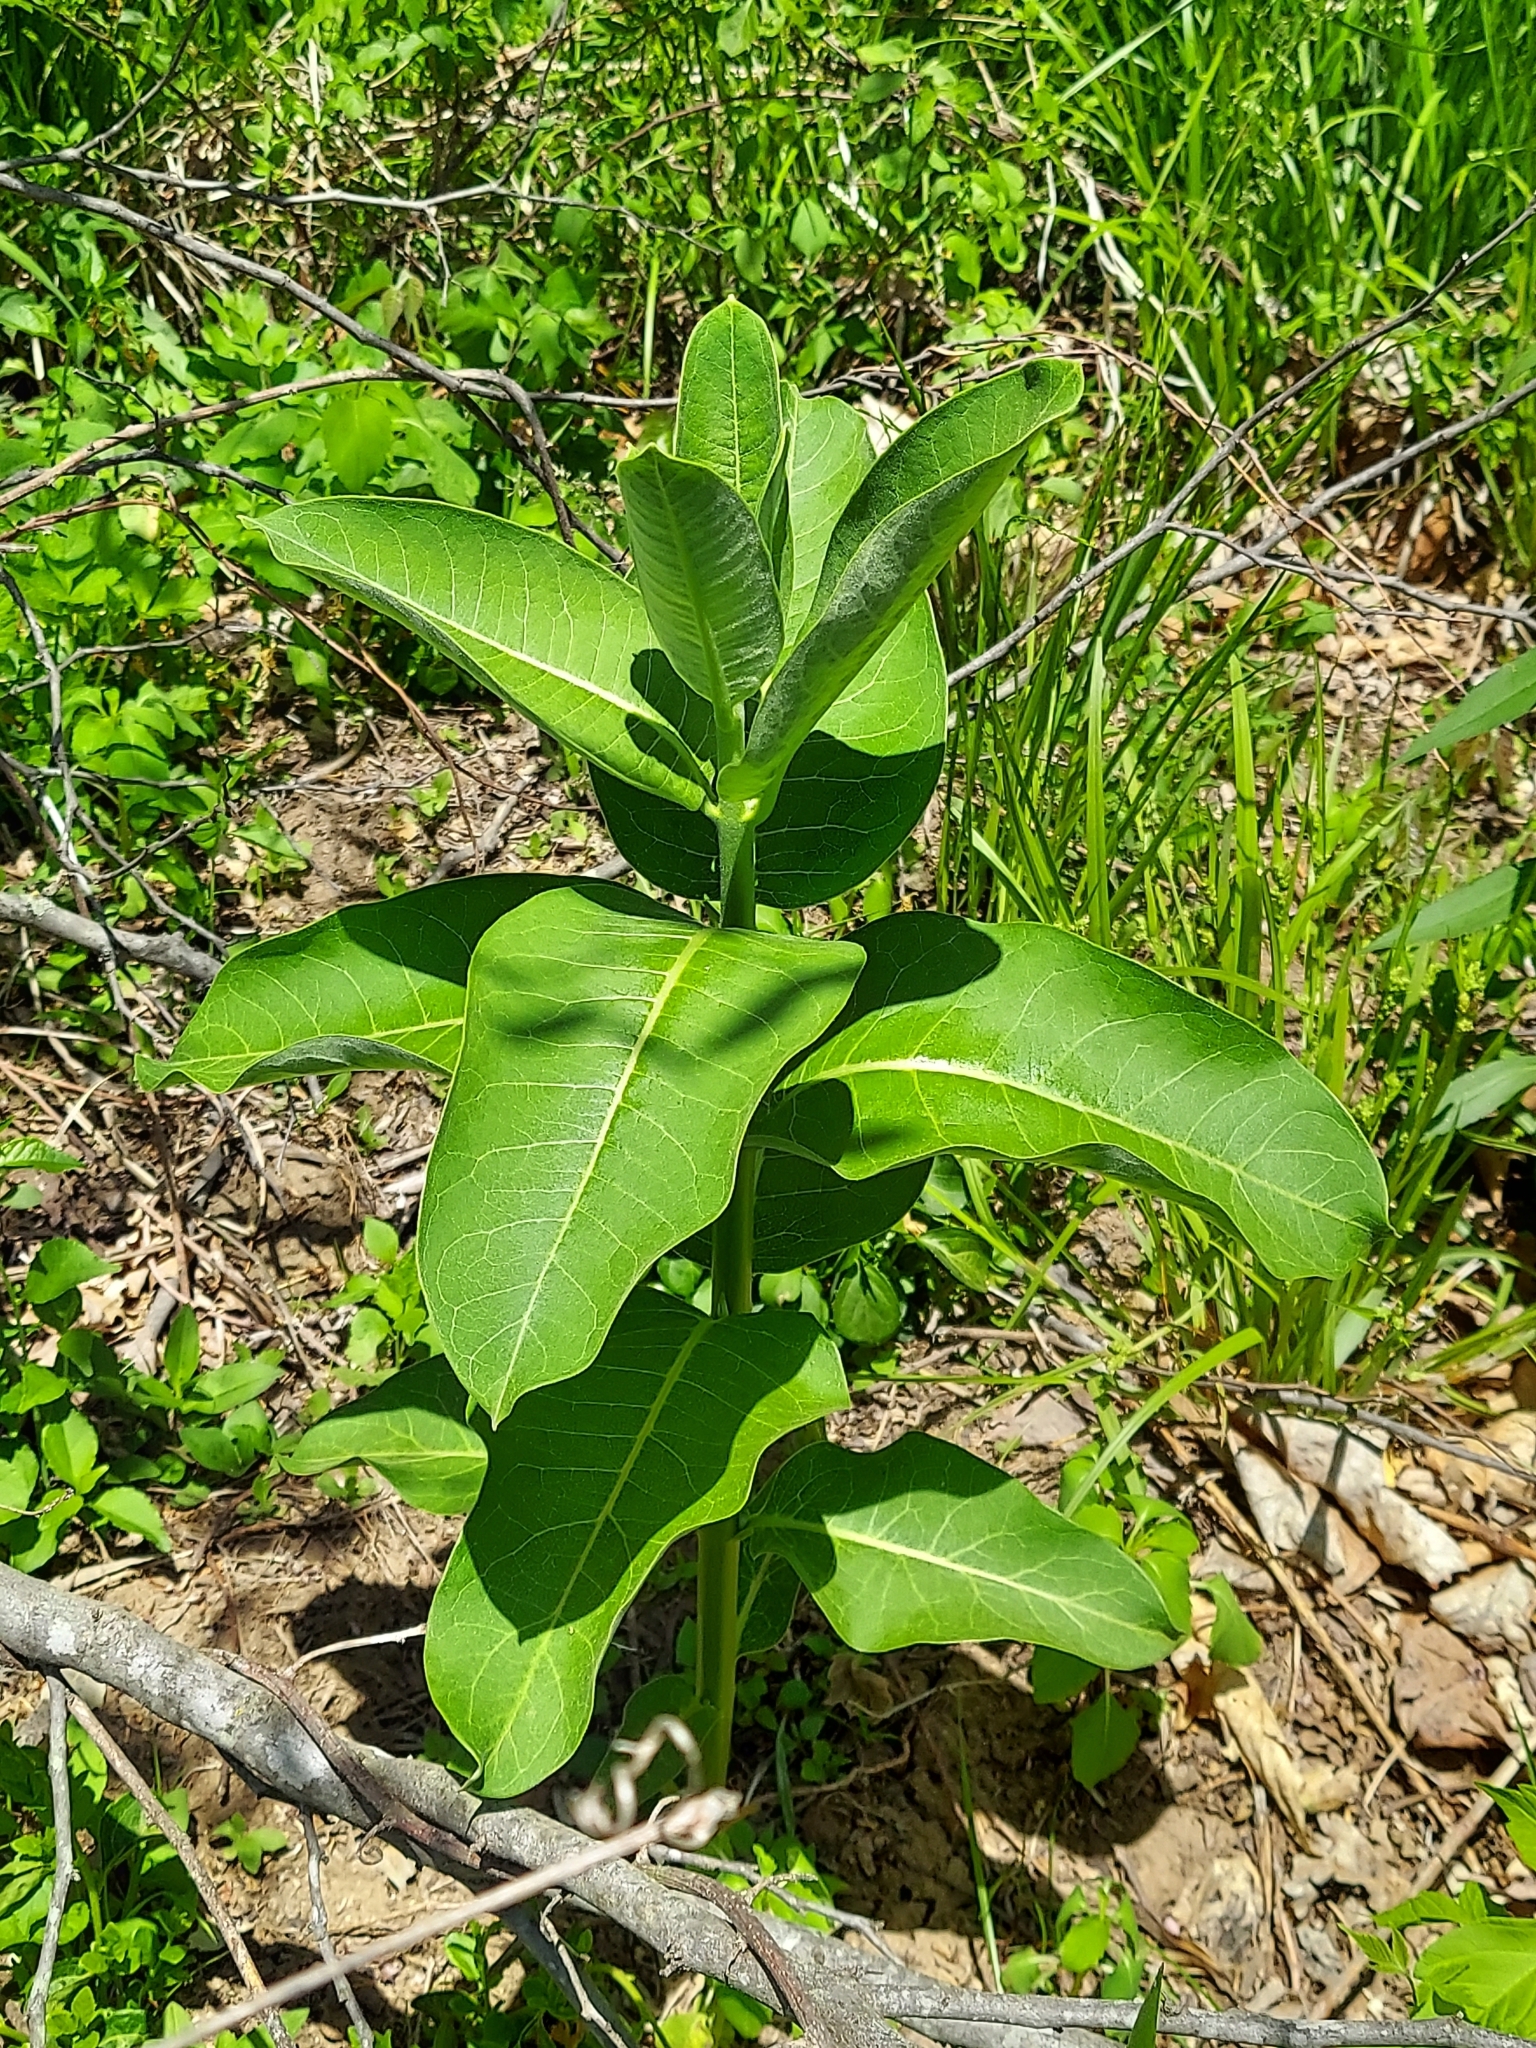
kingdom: Plantae
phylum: Tracheophyta
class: Magnoliopsida
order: Gentianales
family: Apocynaceae
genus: Asclepias
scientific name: Asclepias syriaca
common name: Common milkweed
